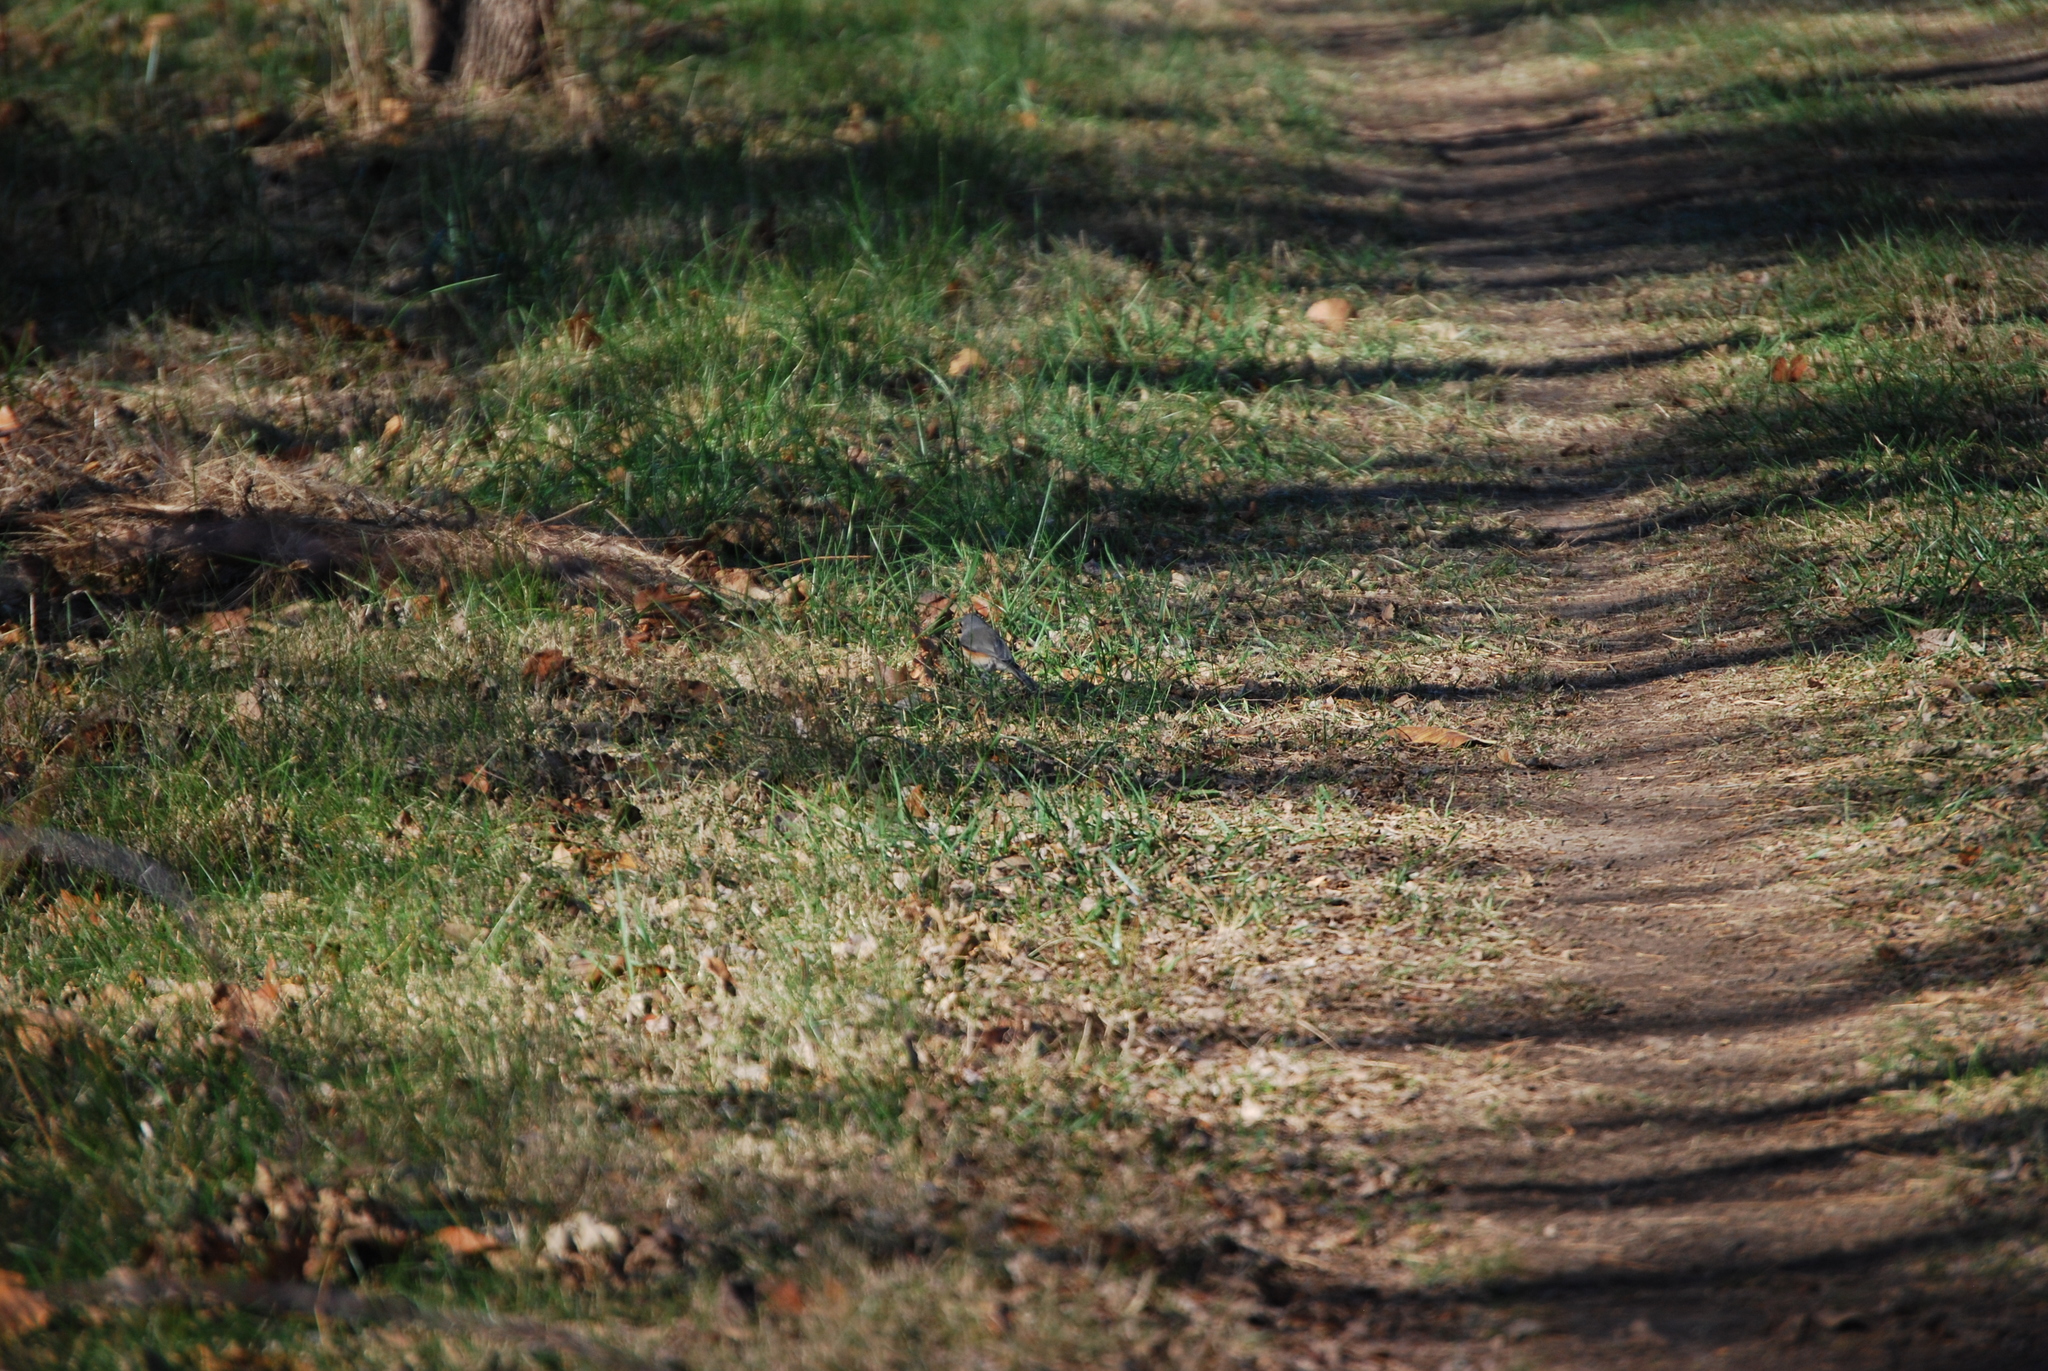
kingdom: Animalia
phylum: Chordata
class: Aves
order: Passeriformes
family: Paridae
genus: Baeolophus
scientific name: Baeolophus bicolor
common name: Tufted titmouse
